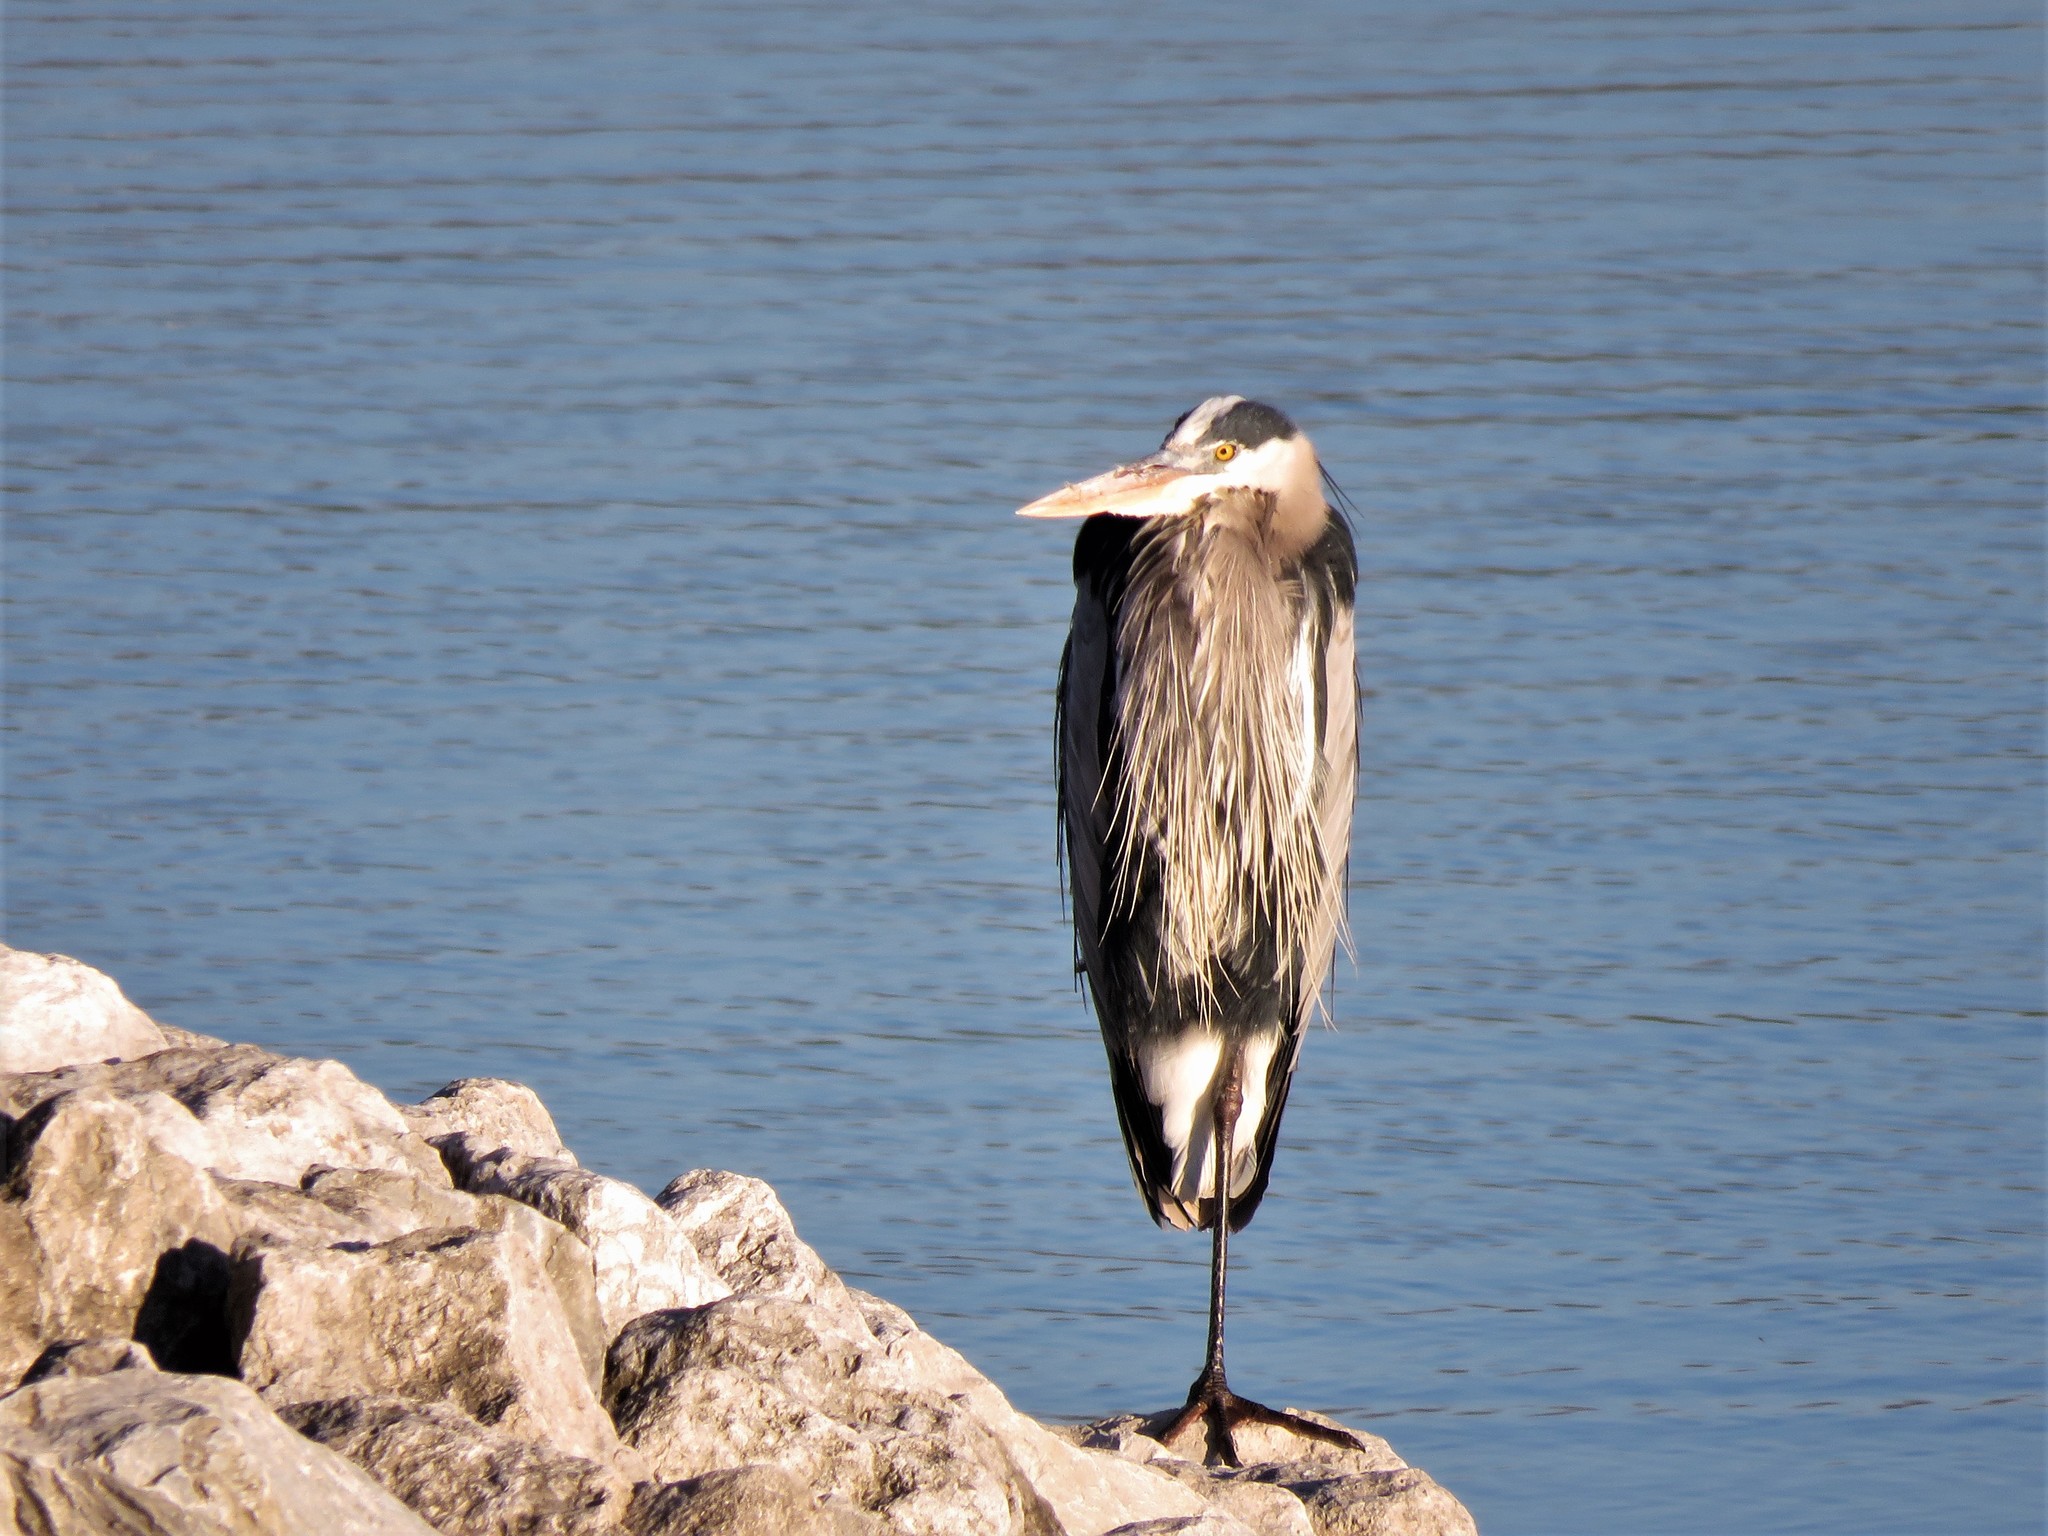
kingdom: Animalia
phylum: Chordata
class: Aves
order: Pelecaniformes
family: Ardeidae
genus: Ardea
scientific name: Ardea herodias
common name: Great blue heron
